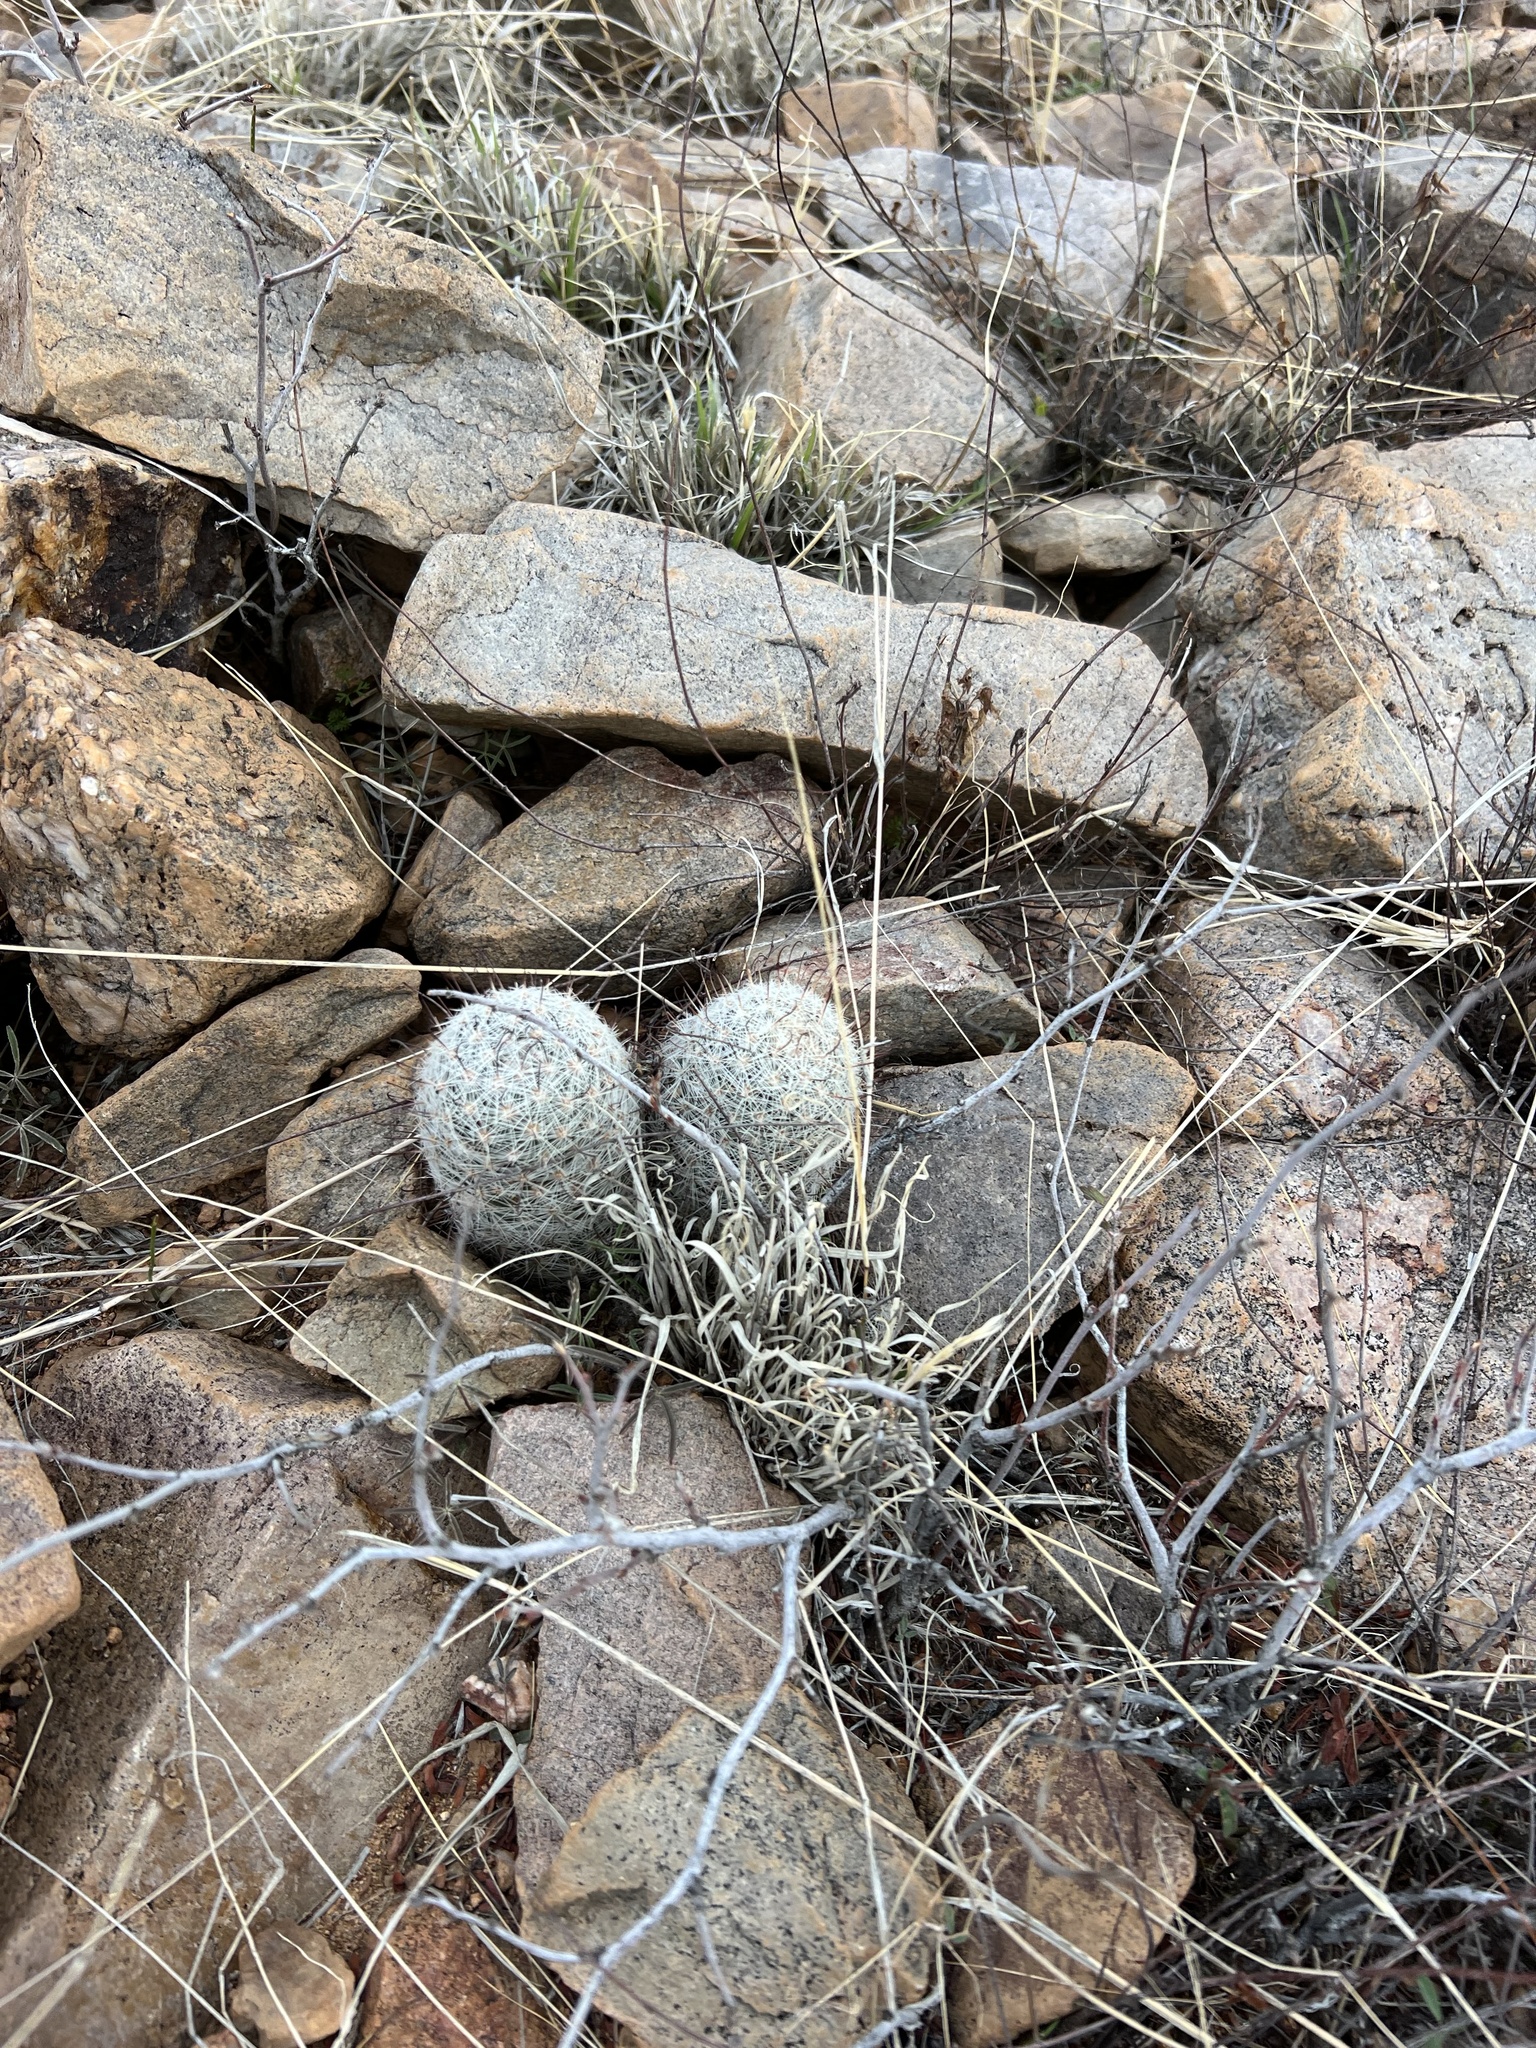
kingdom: Plantae
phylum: Tracheophyta
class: Magnoliopsida
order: Caryophyllales
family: Cactaceae
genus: Cochemiea
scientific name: Cochemiea grahamii
